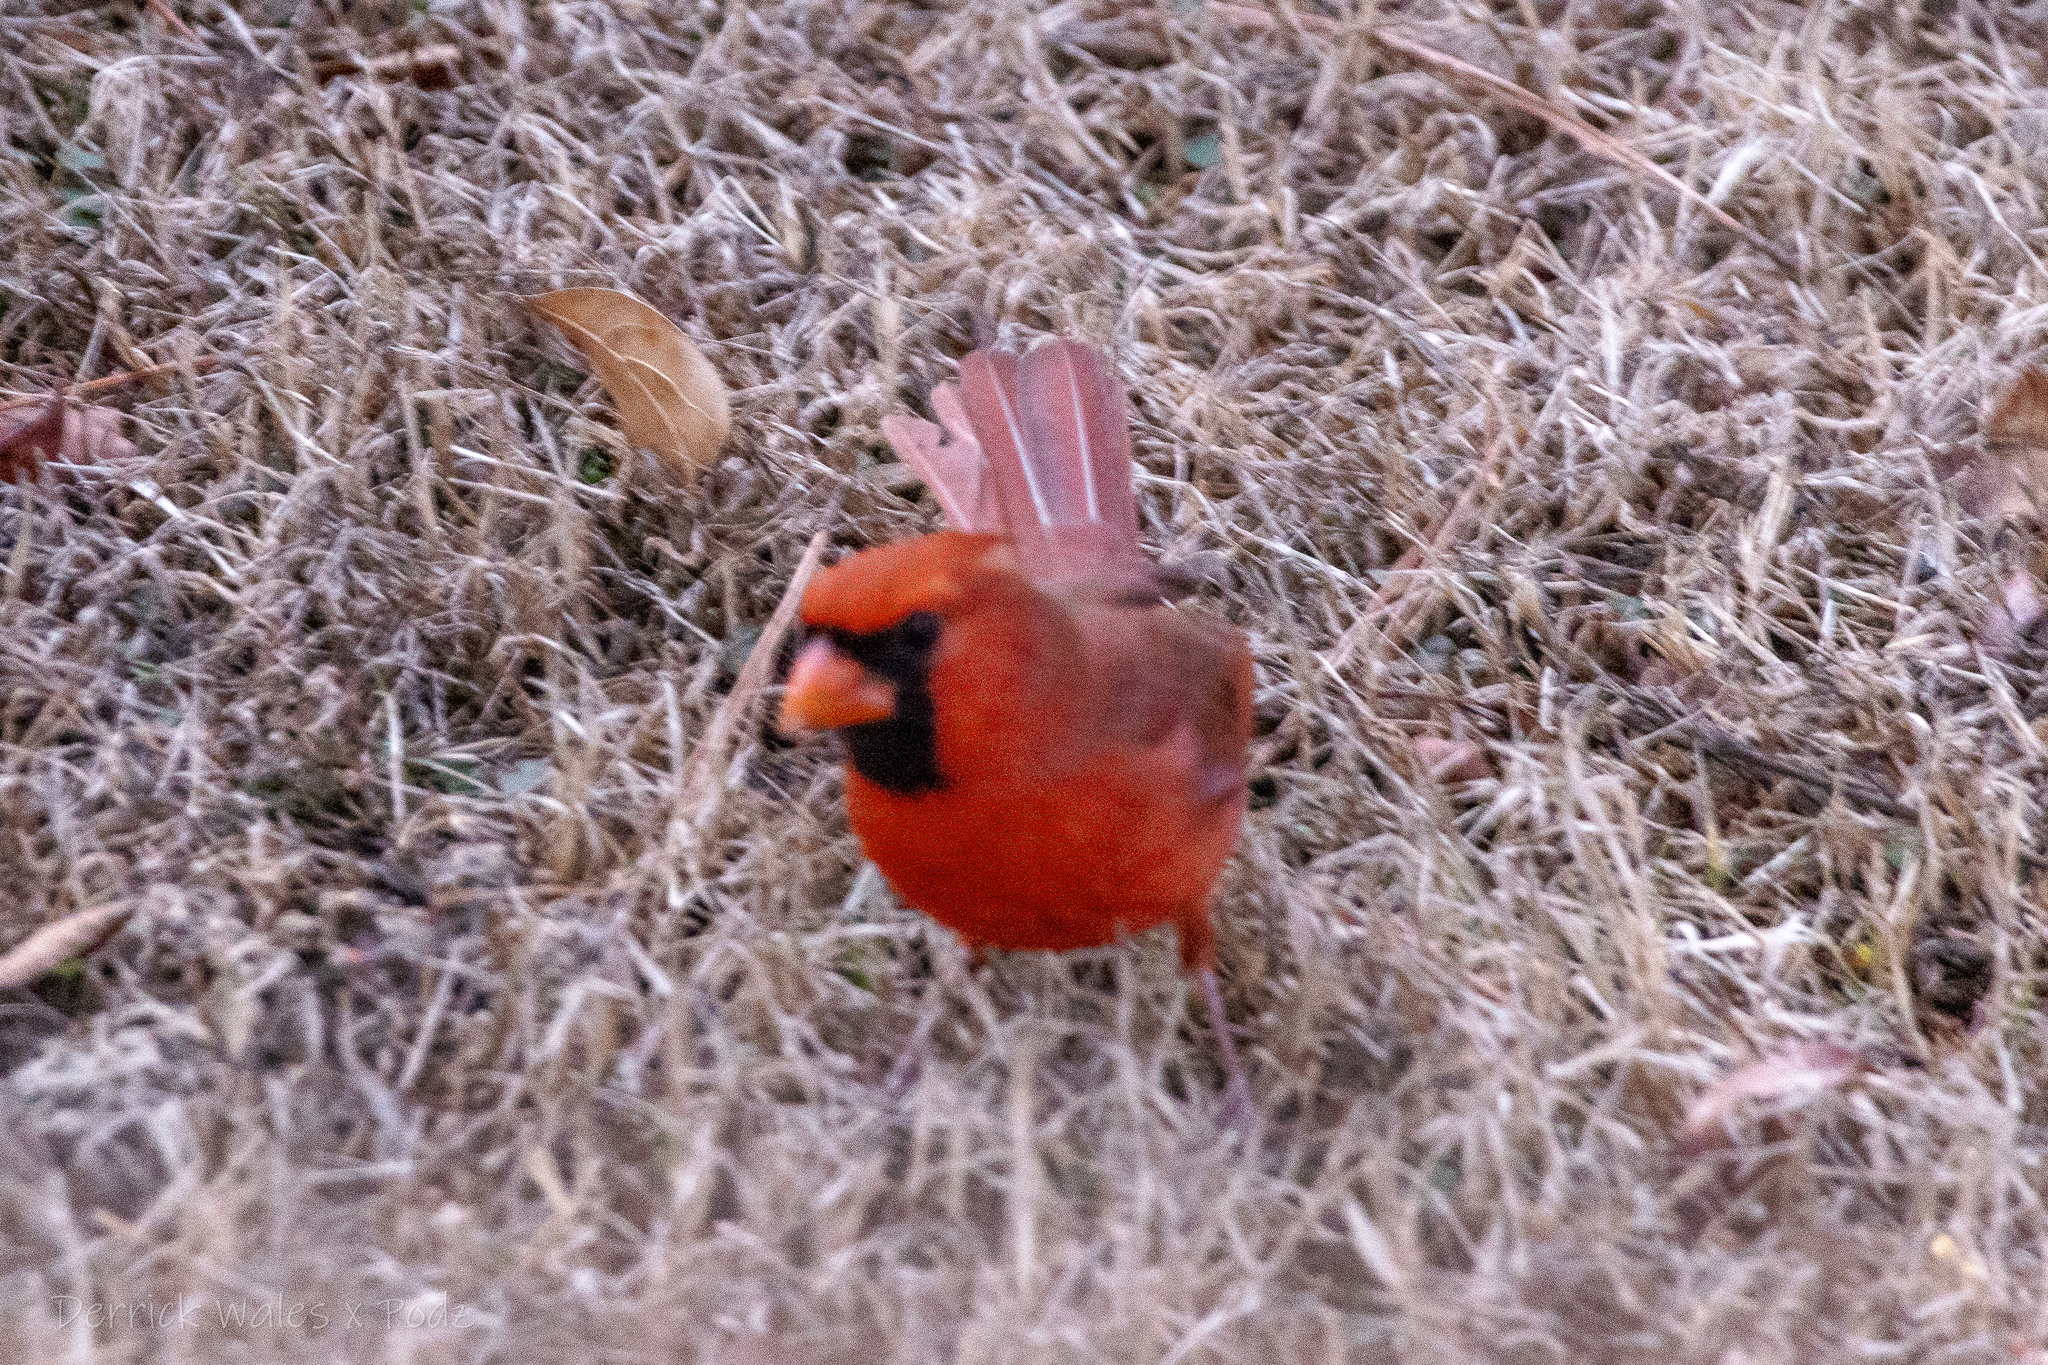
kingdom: Animalia
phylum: Chordata
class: Aves
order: Passeriformes
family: Cardinalidae
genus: Cardinalis
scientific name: Cardinalis cardinalis
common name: Northern cardinal
